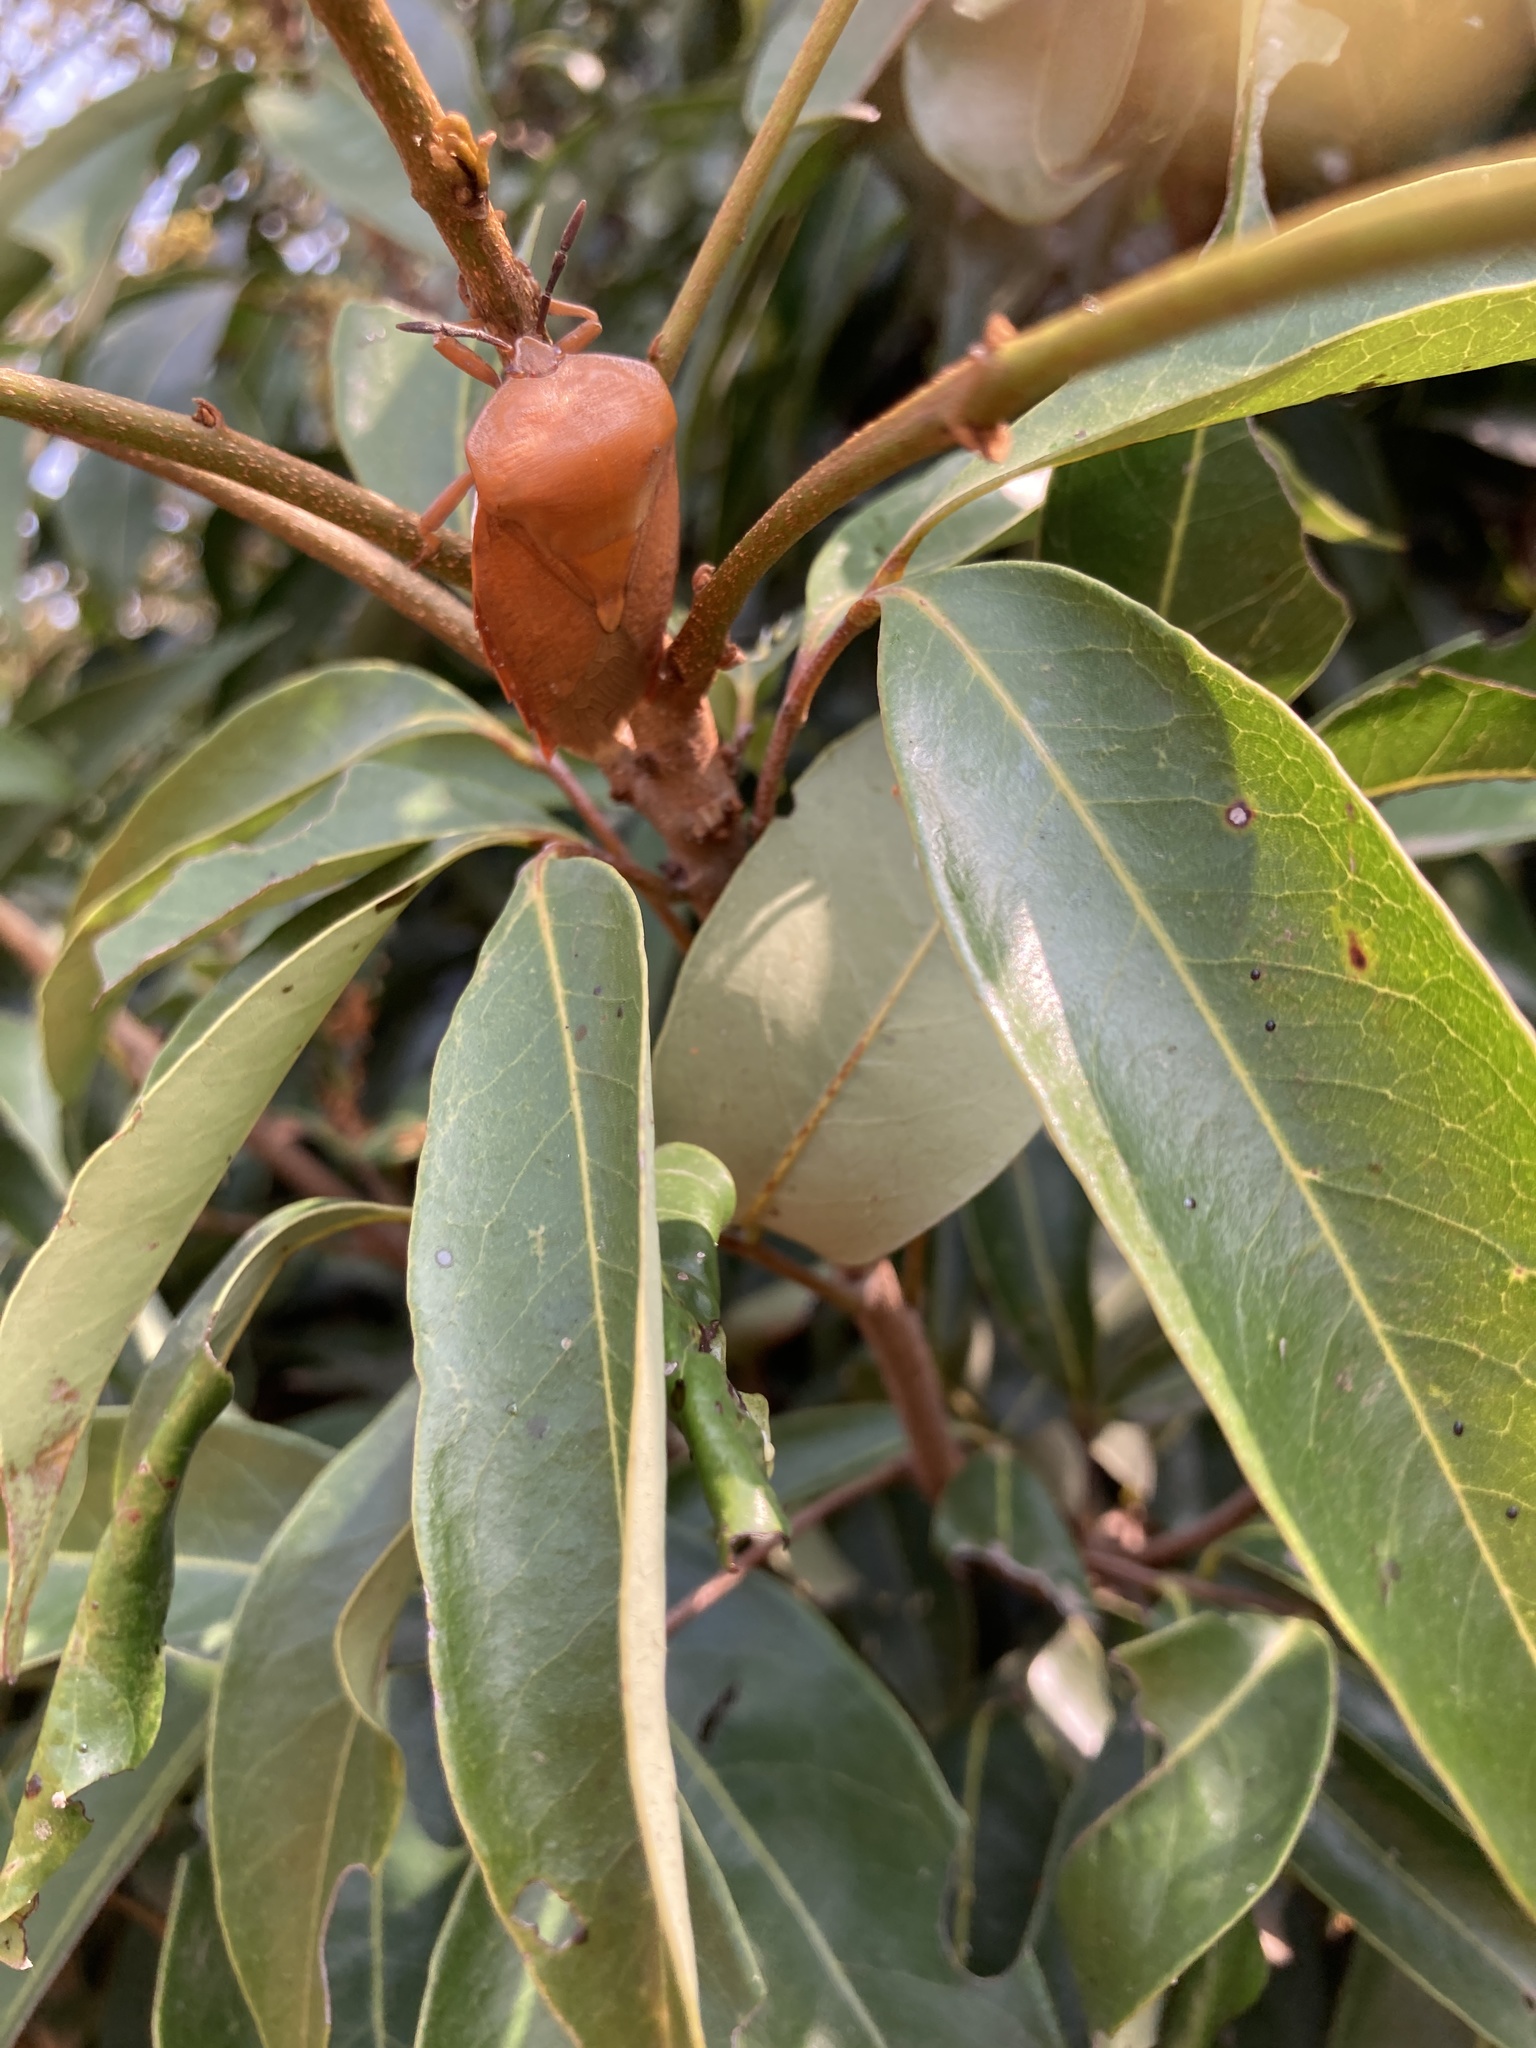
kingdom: Animalia
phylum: Arthropoda
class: Insecta
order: Hemiptera
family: Tessaratomidae
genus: Tessaratoma
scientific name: Tessaratoma papillosa
